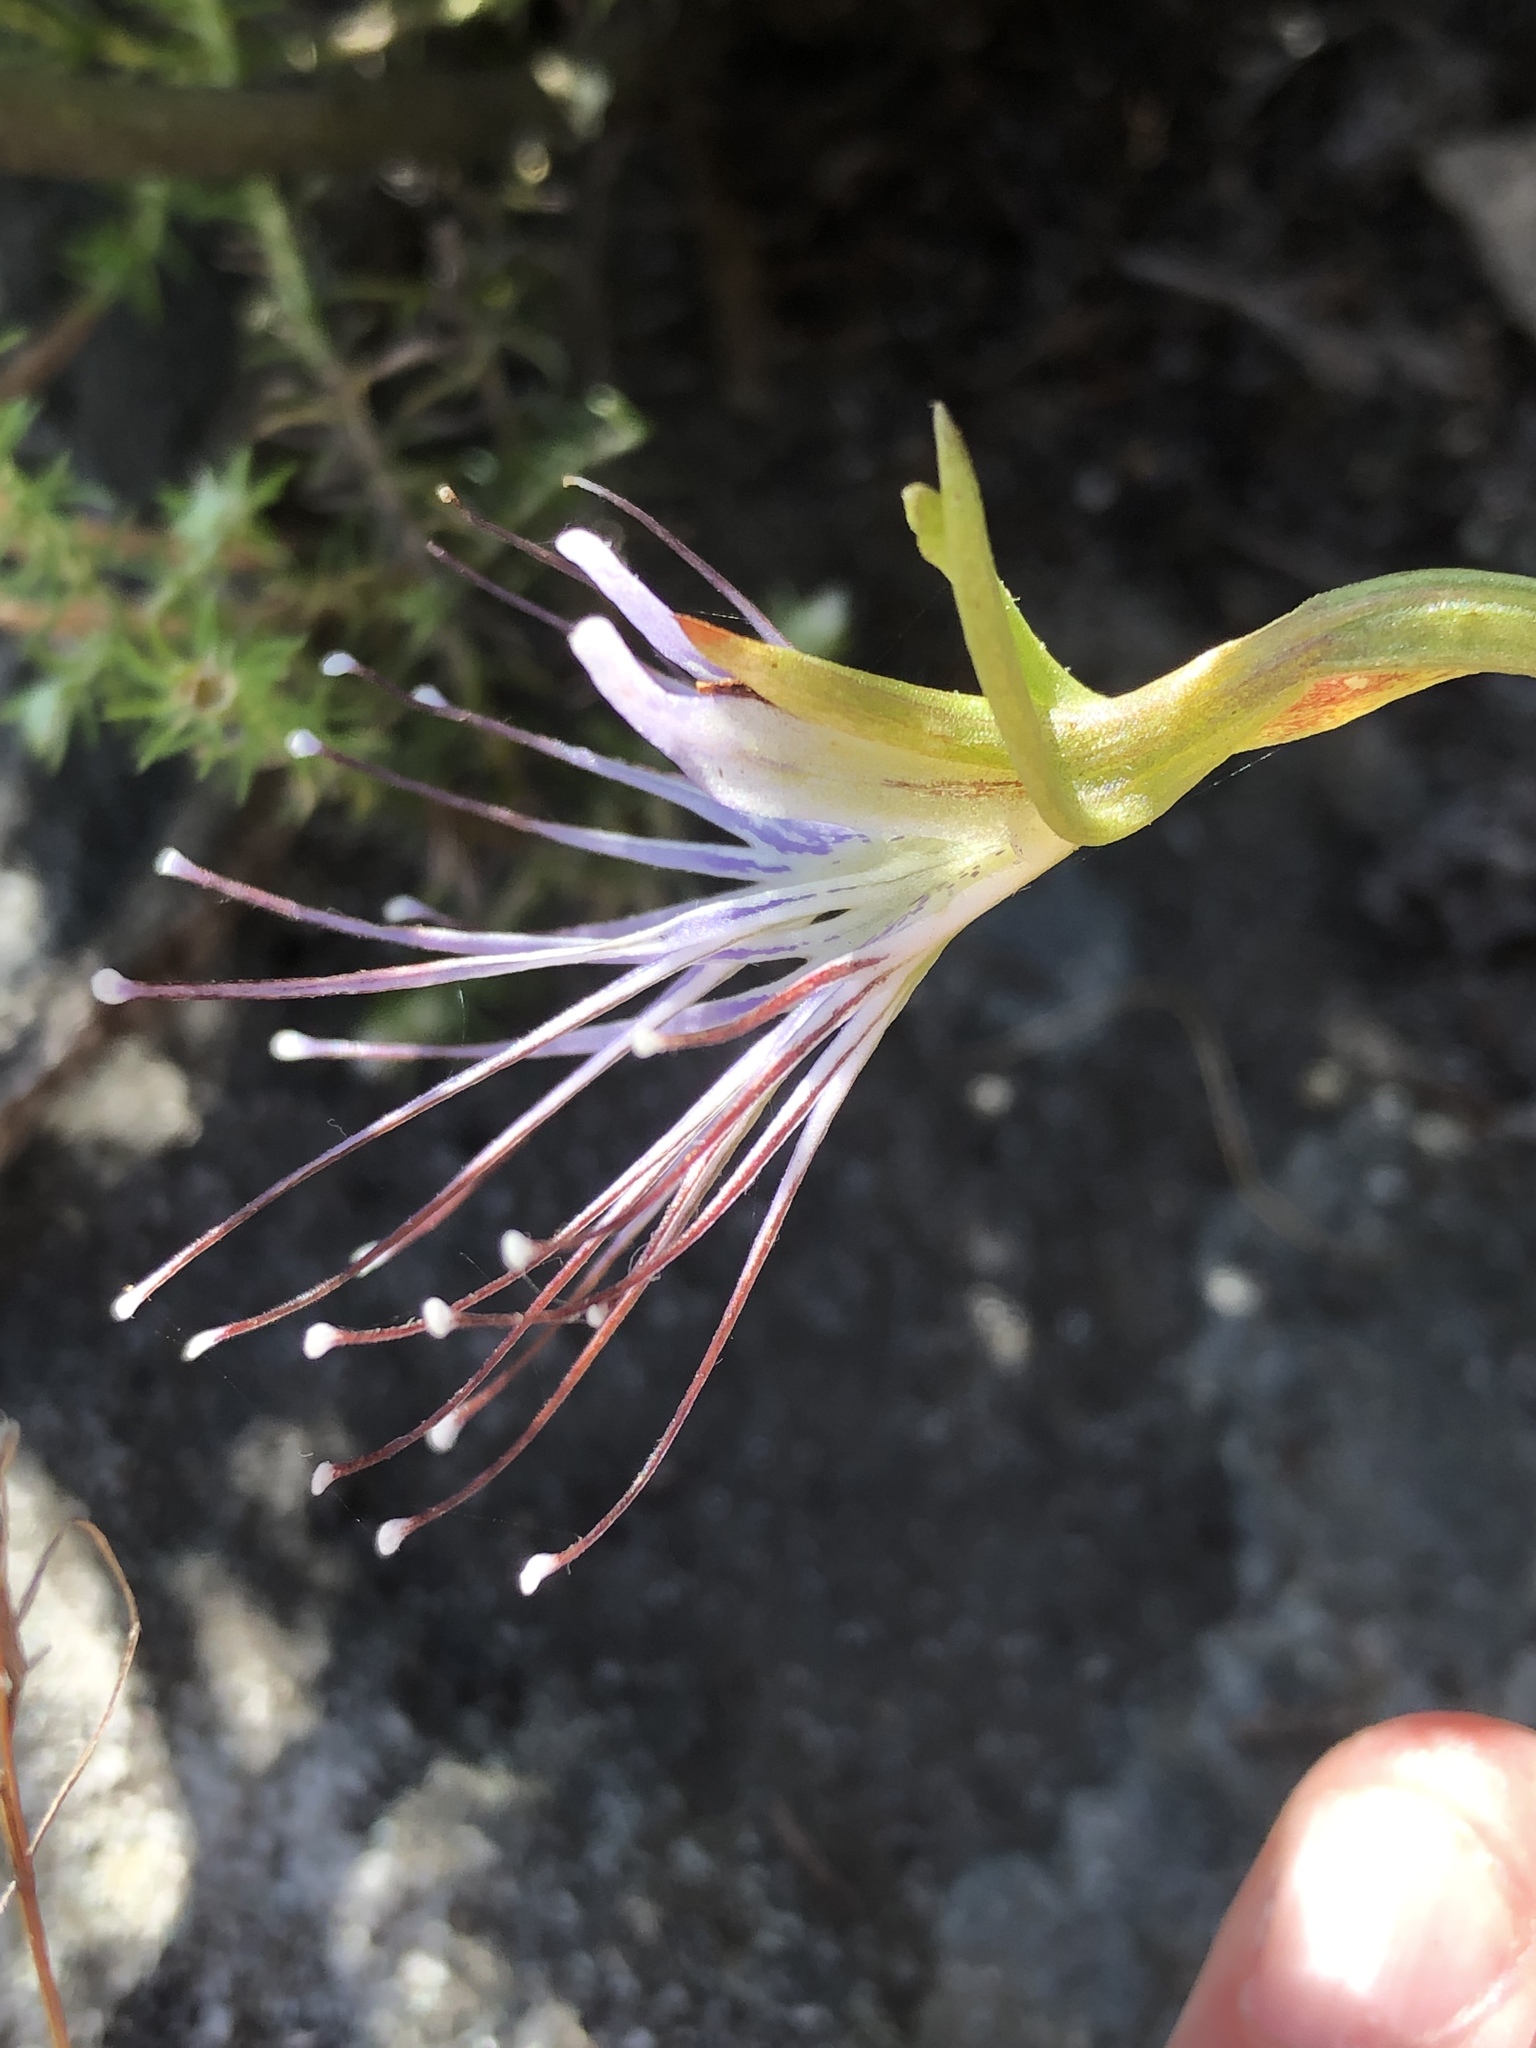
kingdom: Plantae
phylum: Tracheophyta
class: Liliopsida
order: Asparagales
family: Orchidaceae
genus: Holothrix
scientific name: Holothrix etheliae
